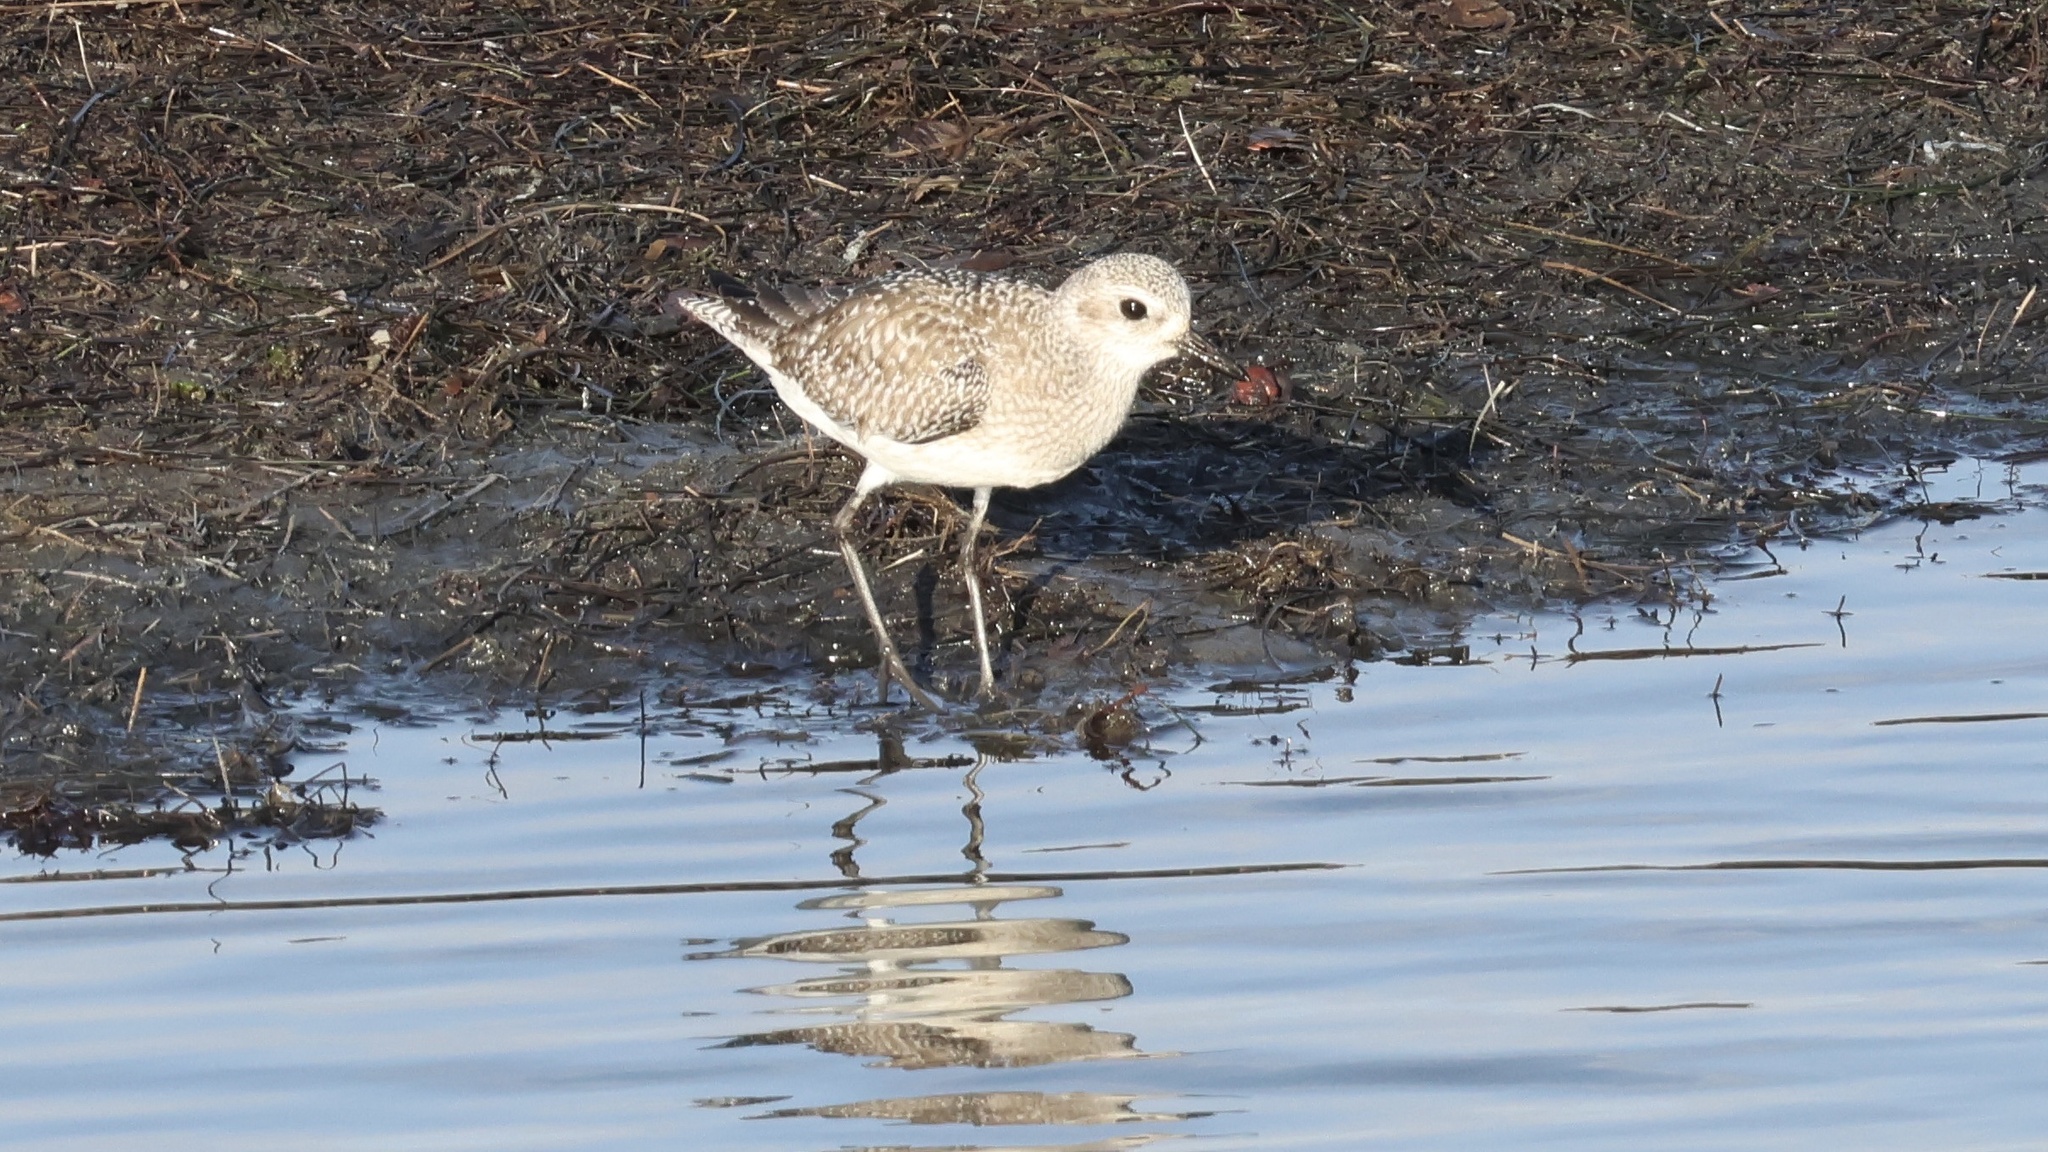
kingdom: Animalia
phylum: Chordata
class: Aves
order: Charadriiformes
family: Charadriidae
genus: Pluvialis
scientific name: Pluvialis squatarola
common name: Grey plover
